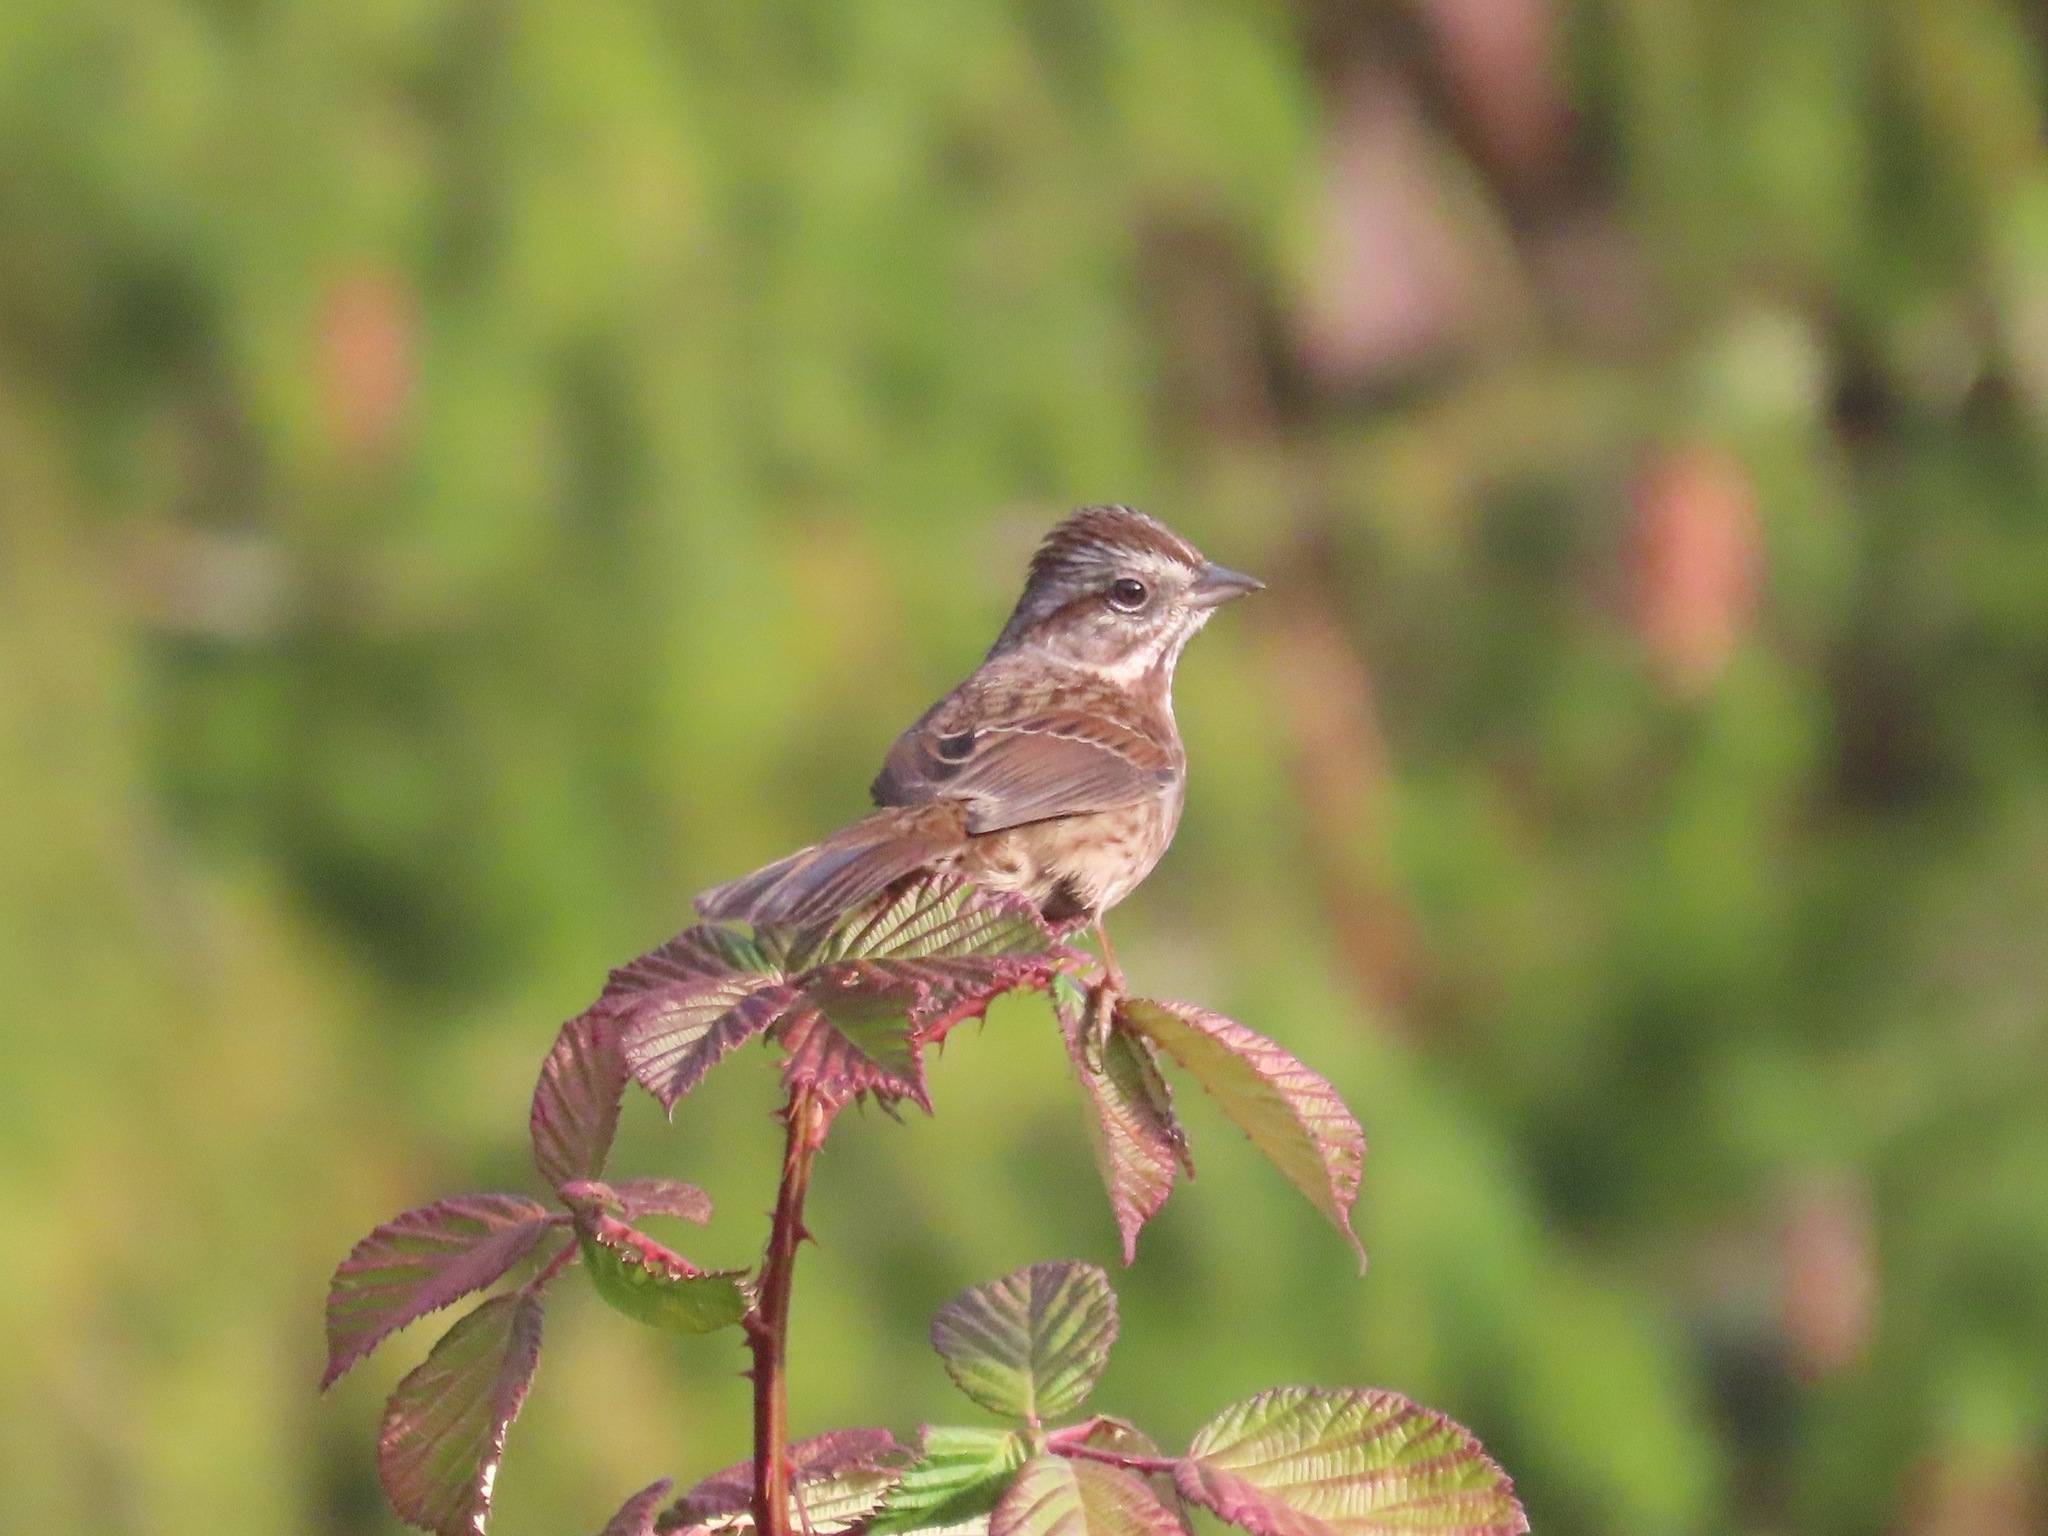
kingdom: Animalia
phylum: Chordata
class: Aves
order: Passeriformes
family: Passerellidae
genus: Melospiza
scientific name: Melospiza melodia
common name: Song sparrow
